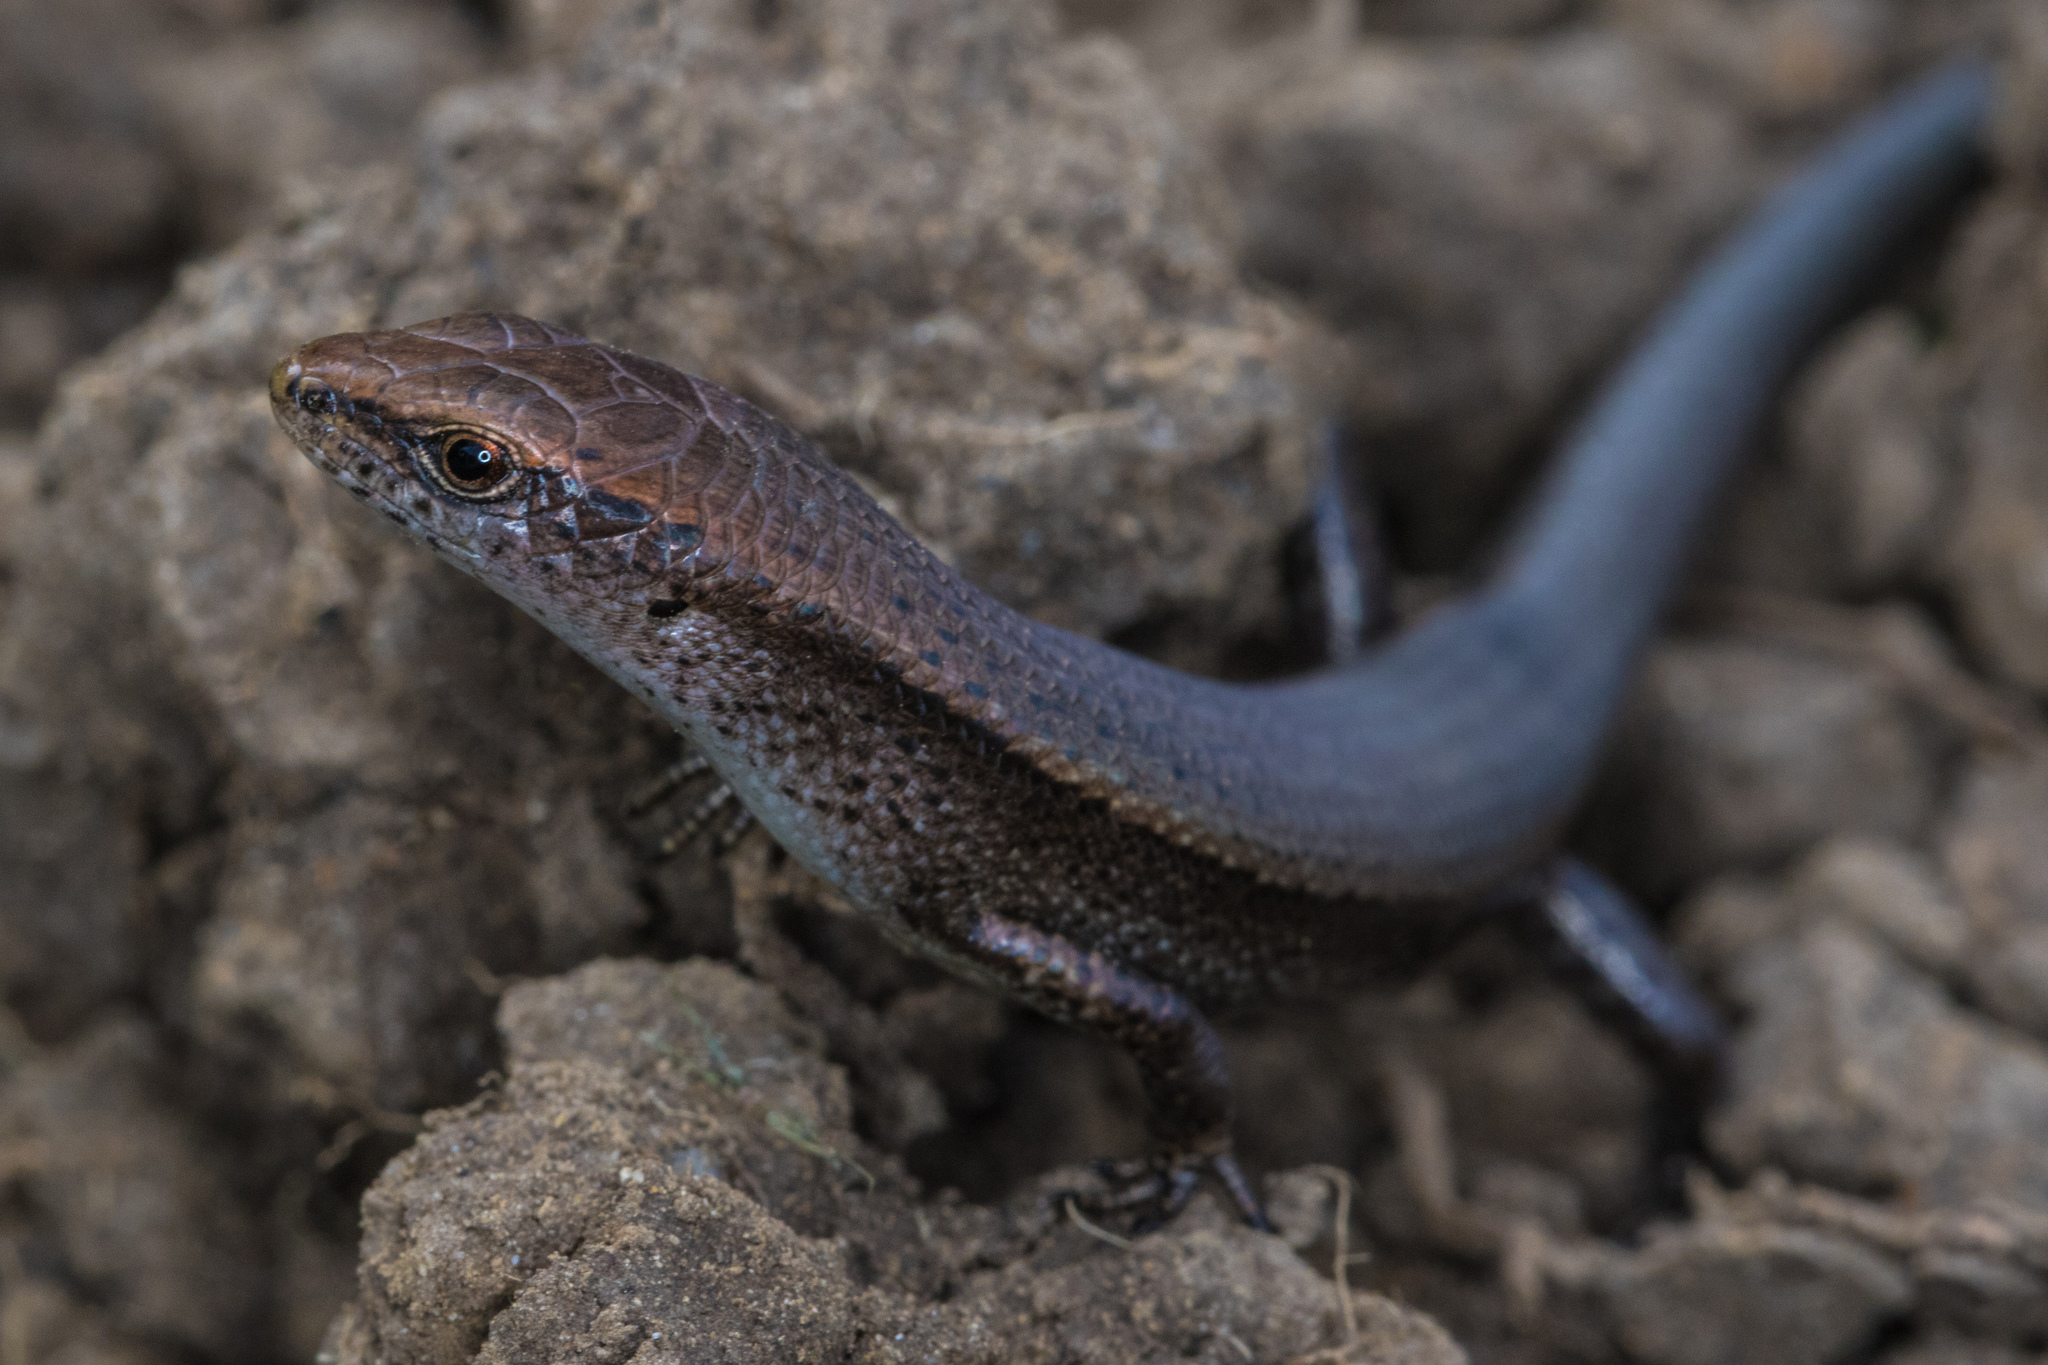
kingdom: Animalia
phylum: Chordata
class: Squamata
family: Scincidae
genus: Lampropholis
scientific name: Lampropholis delicata
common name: Plague skink
